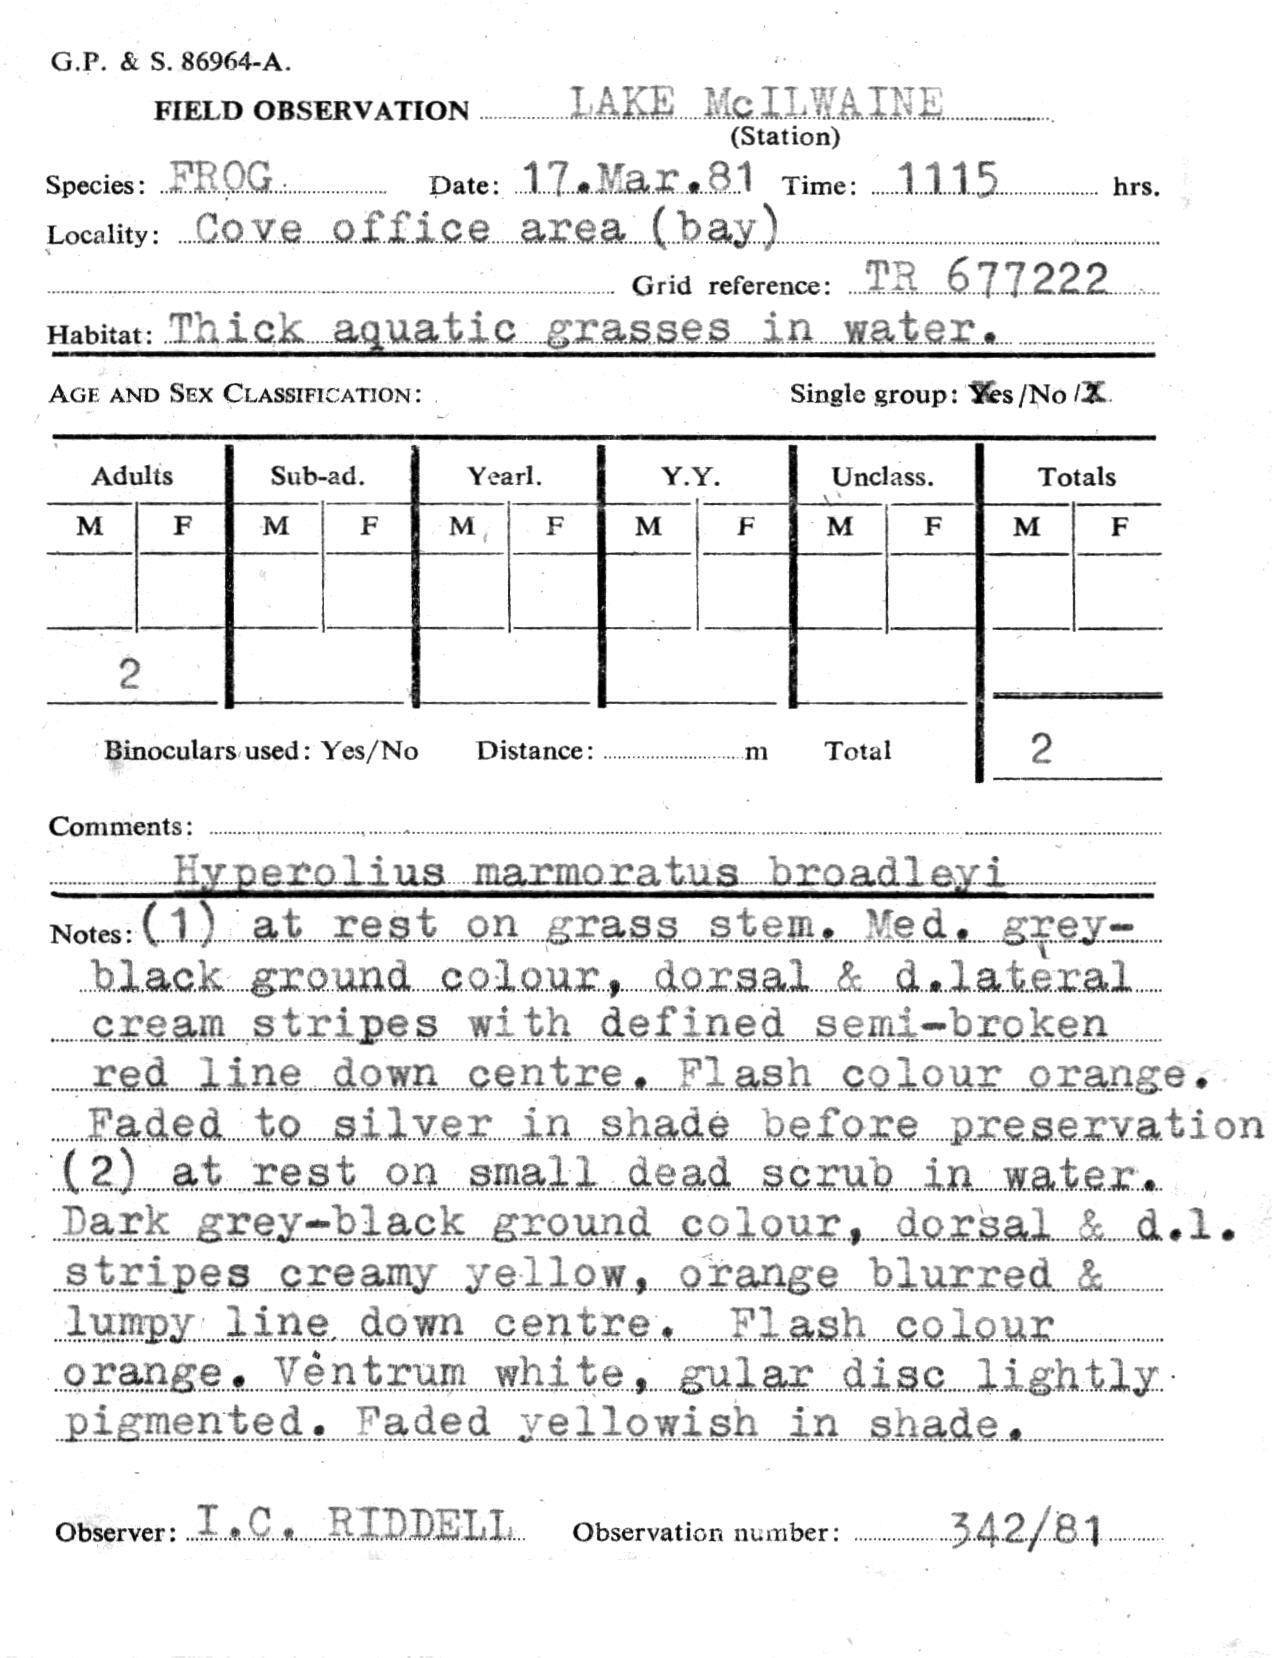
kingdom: Animalia
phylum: Chordata
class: Amphibia
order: Anura
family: Hyperoliidae
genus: Hyperolius
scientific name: Hyperolius marginatus
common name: Silver-striped sedgefrog
